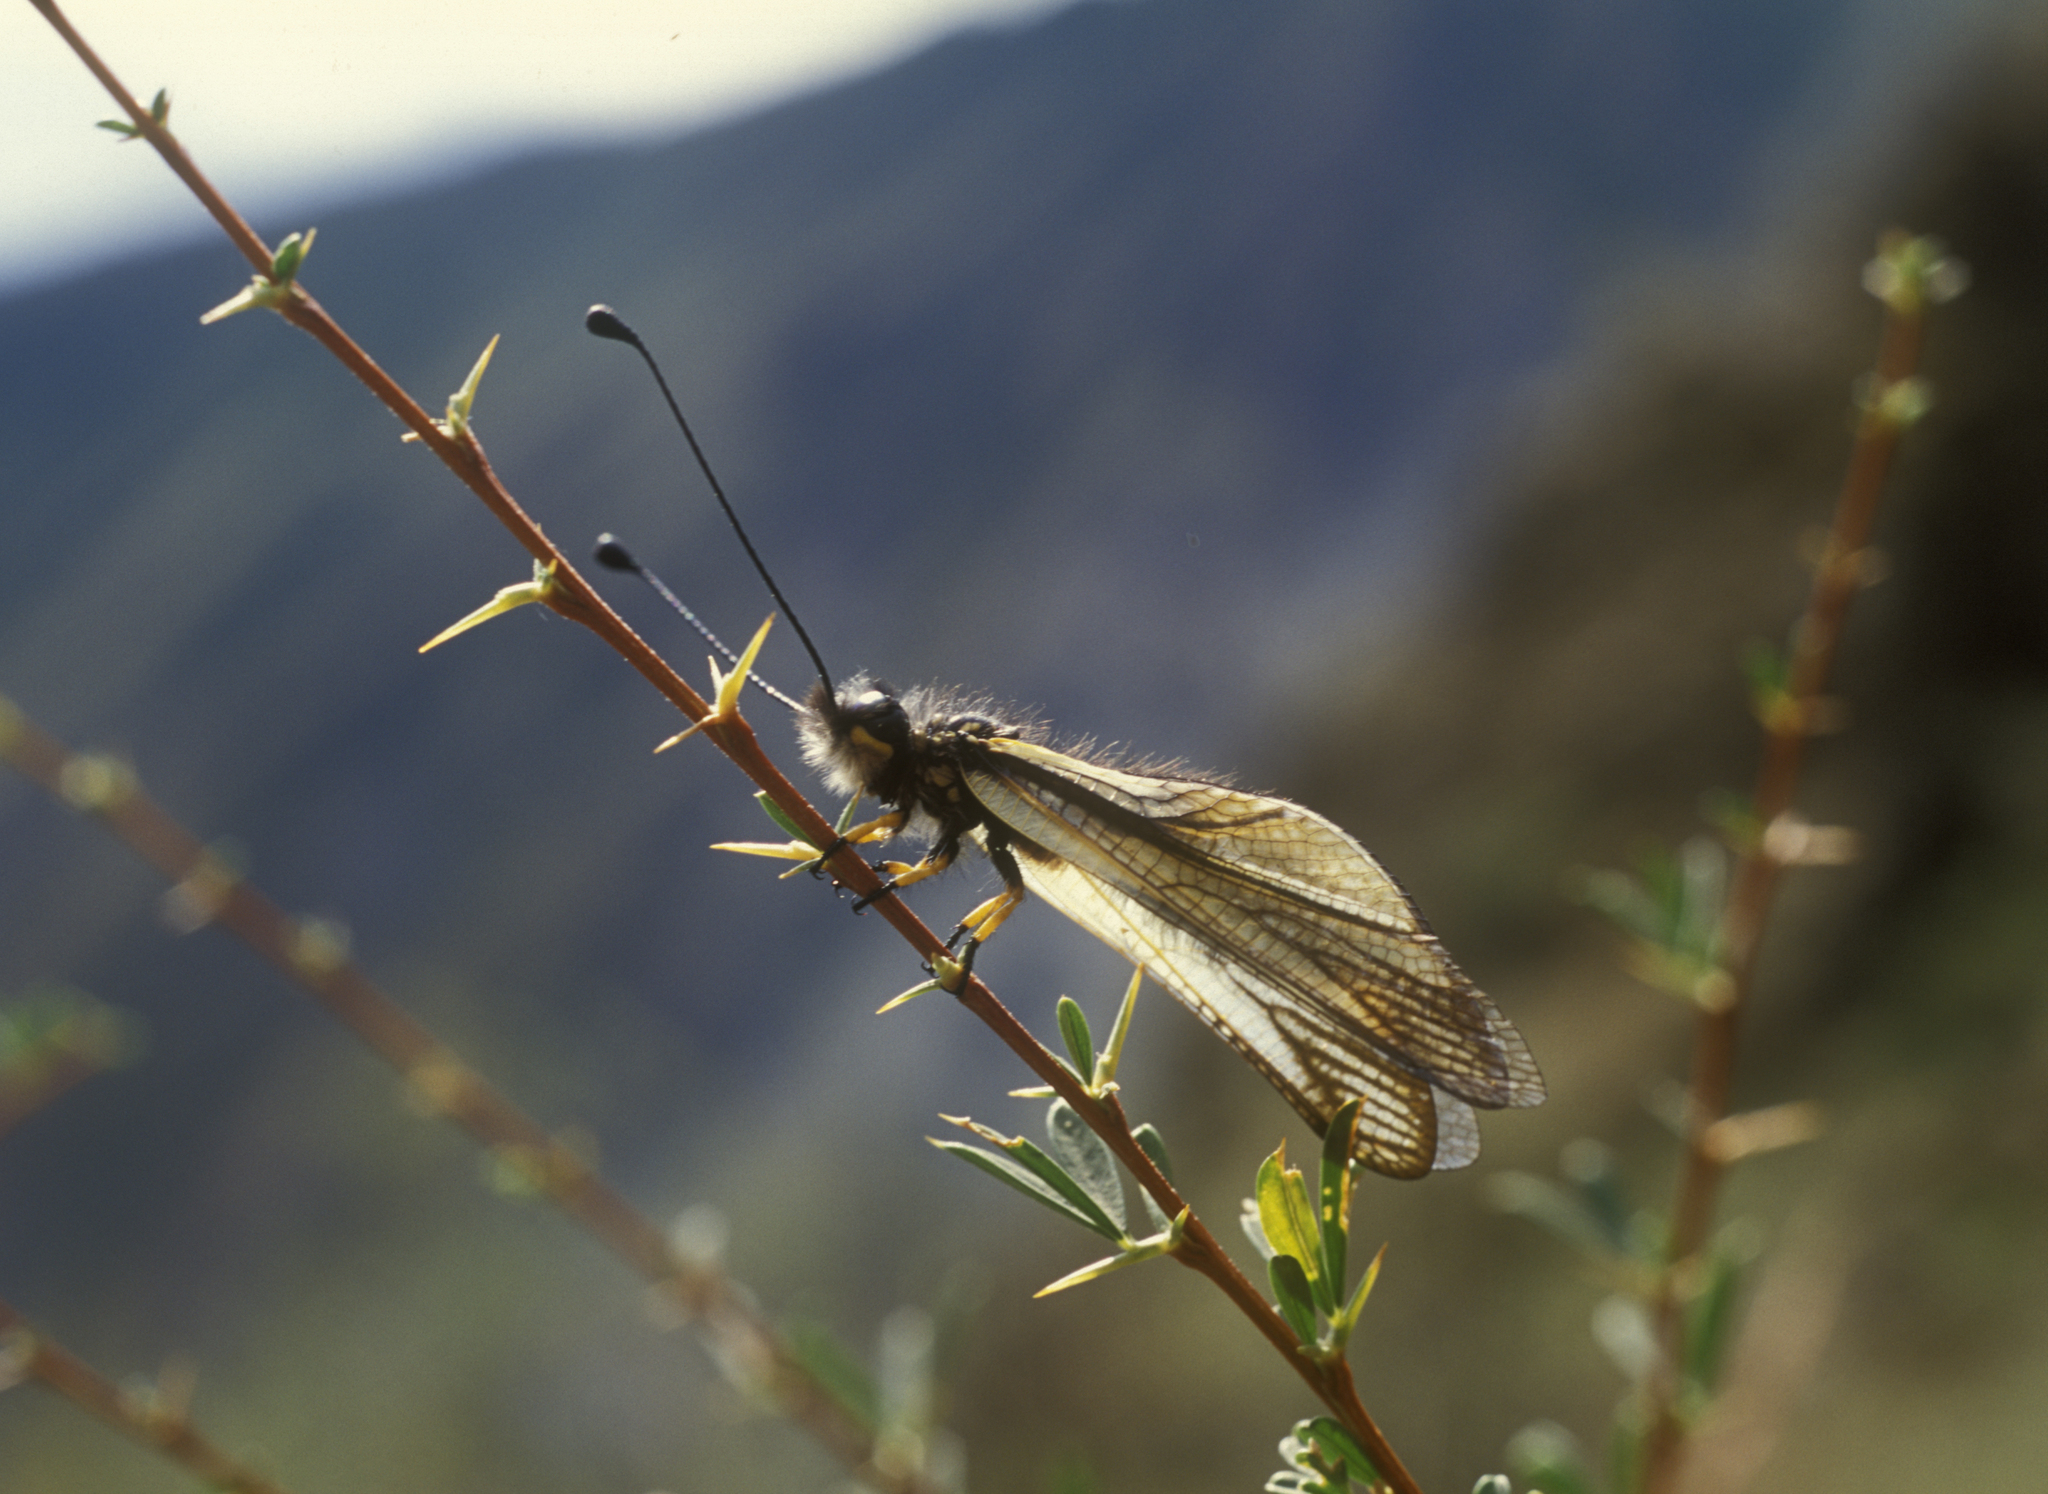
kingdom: Plantae
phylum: Tracheophyta
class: Magnoliopsida
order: Fabales
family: Fabaceae
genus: Caragana
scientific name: Caragana pygmaea
